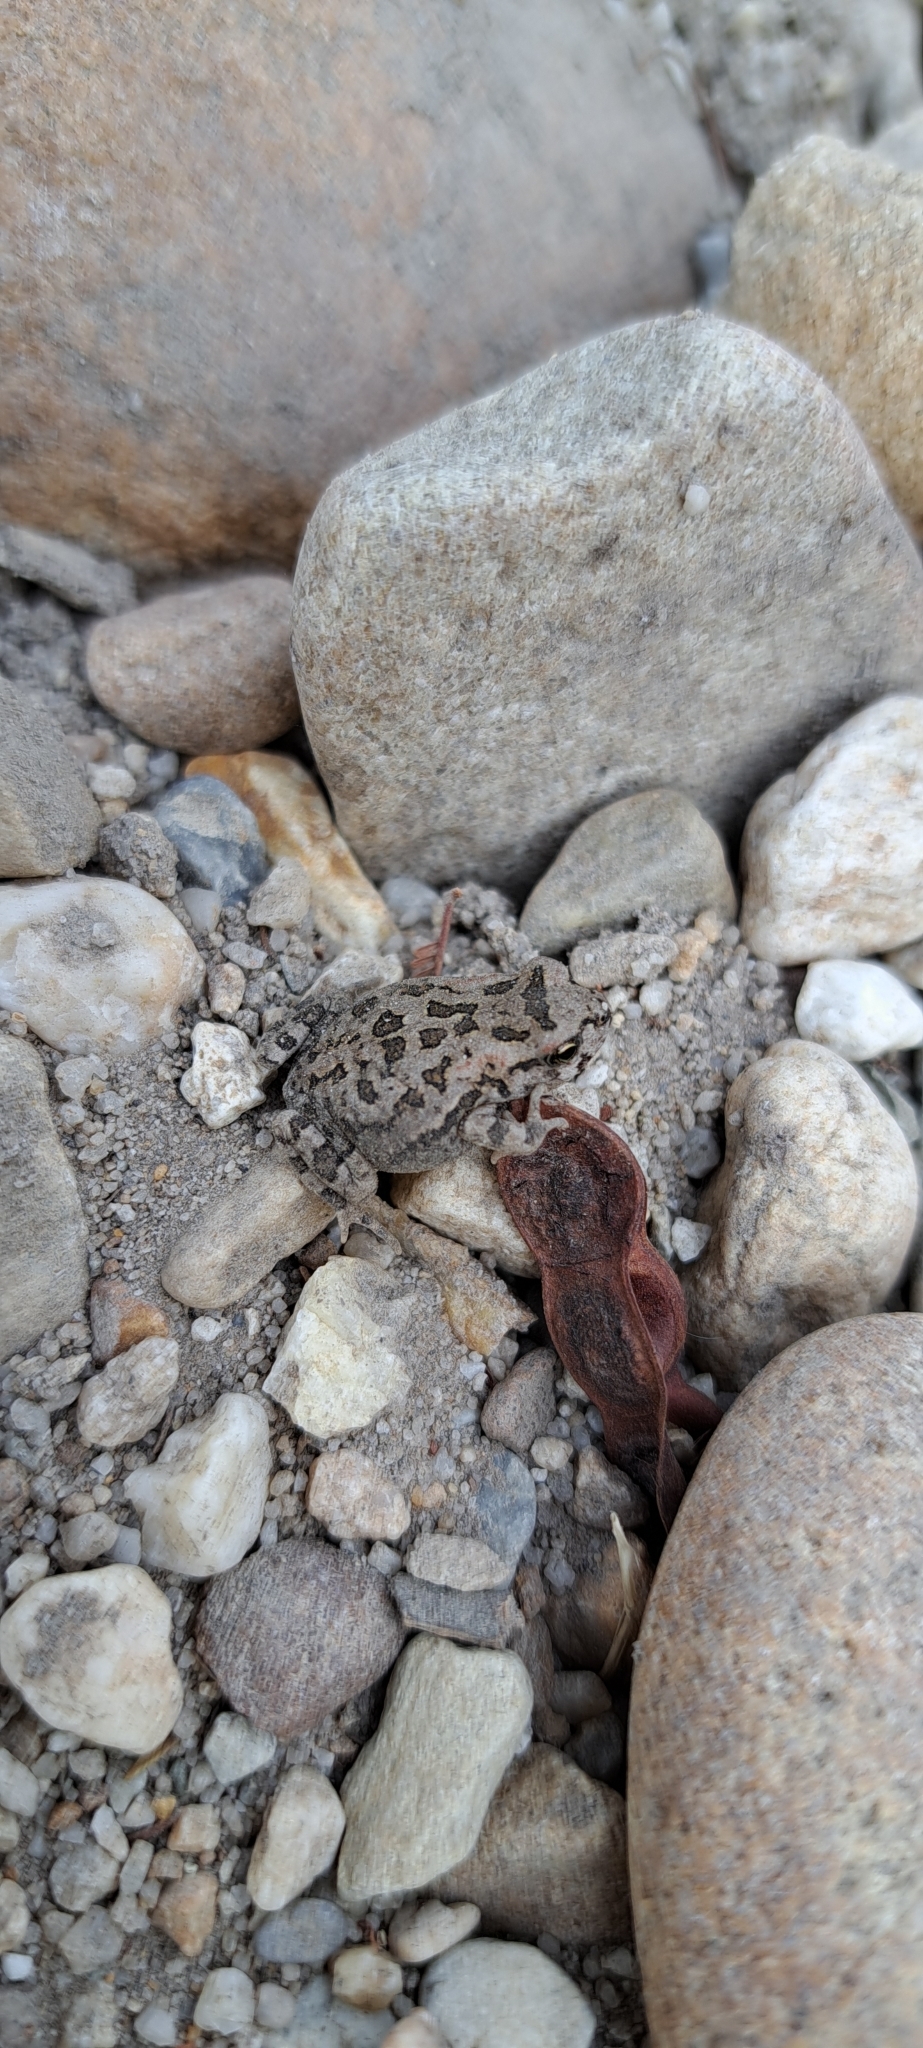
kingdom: Animalia
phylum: Chordata
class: Amphibia
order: Anura
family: Bufonidae
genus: Sclerophrys
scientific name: Sclerophrys capensis
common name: Ranger’s toad
